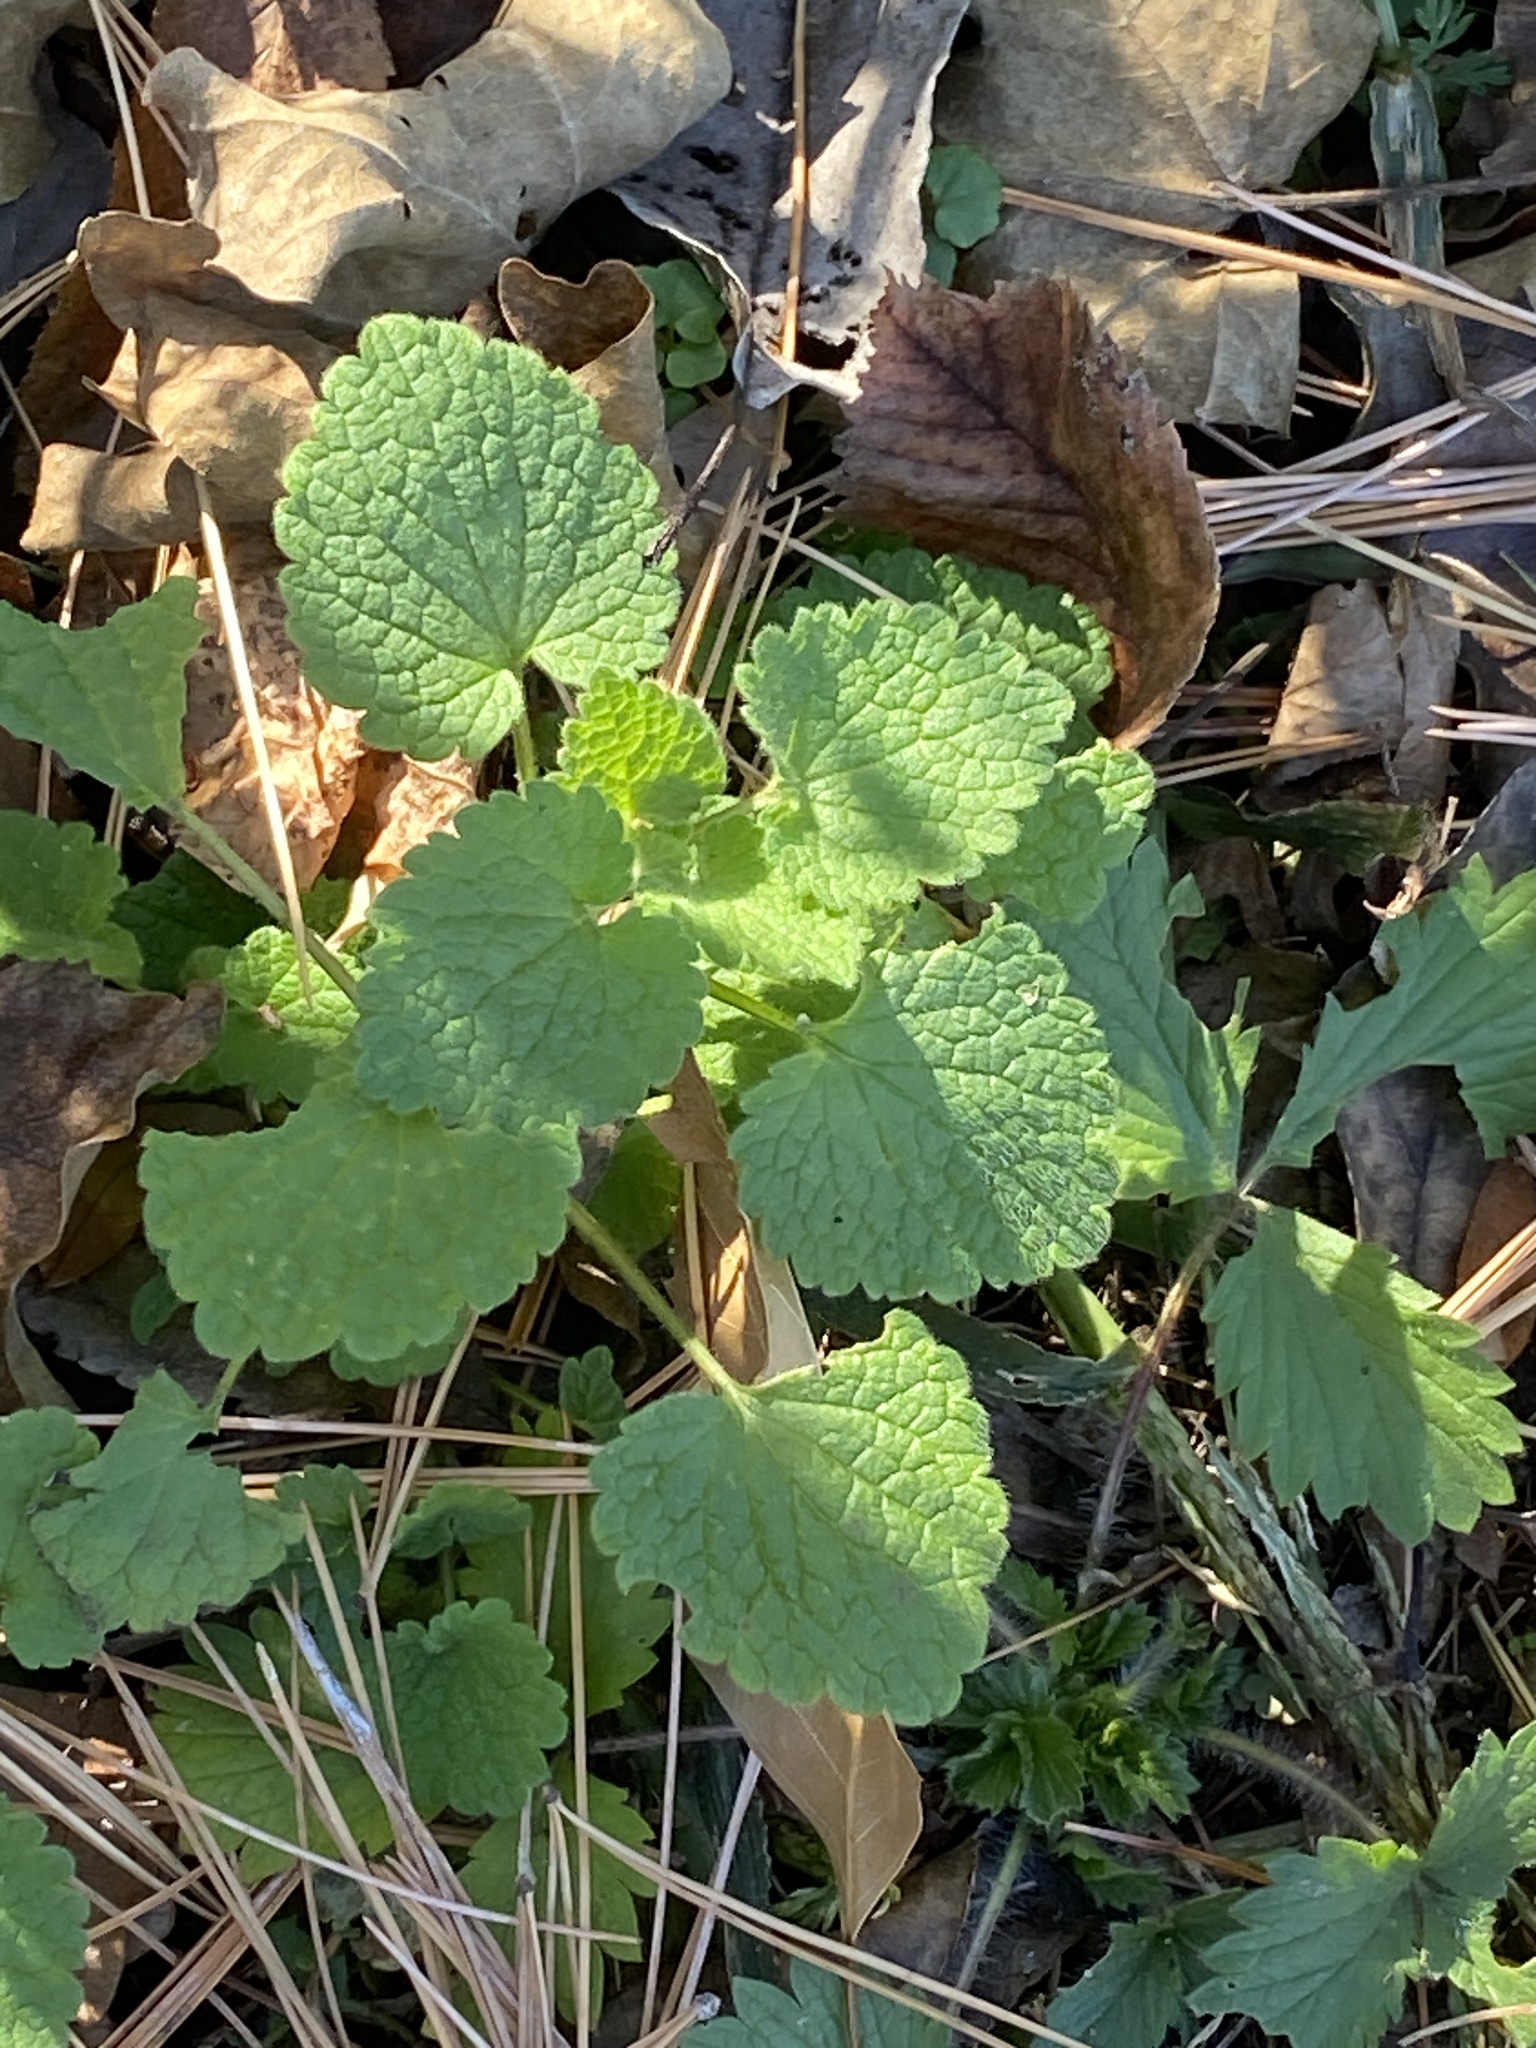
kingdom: Plantae
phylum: Tracheophyta
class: Magnoliopsida
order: Lamiales
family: Lamiaceae
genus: Lamium
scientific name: Lamium purpureum
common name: Red dead-nettle
